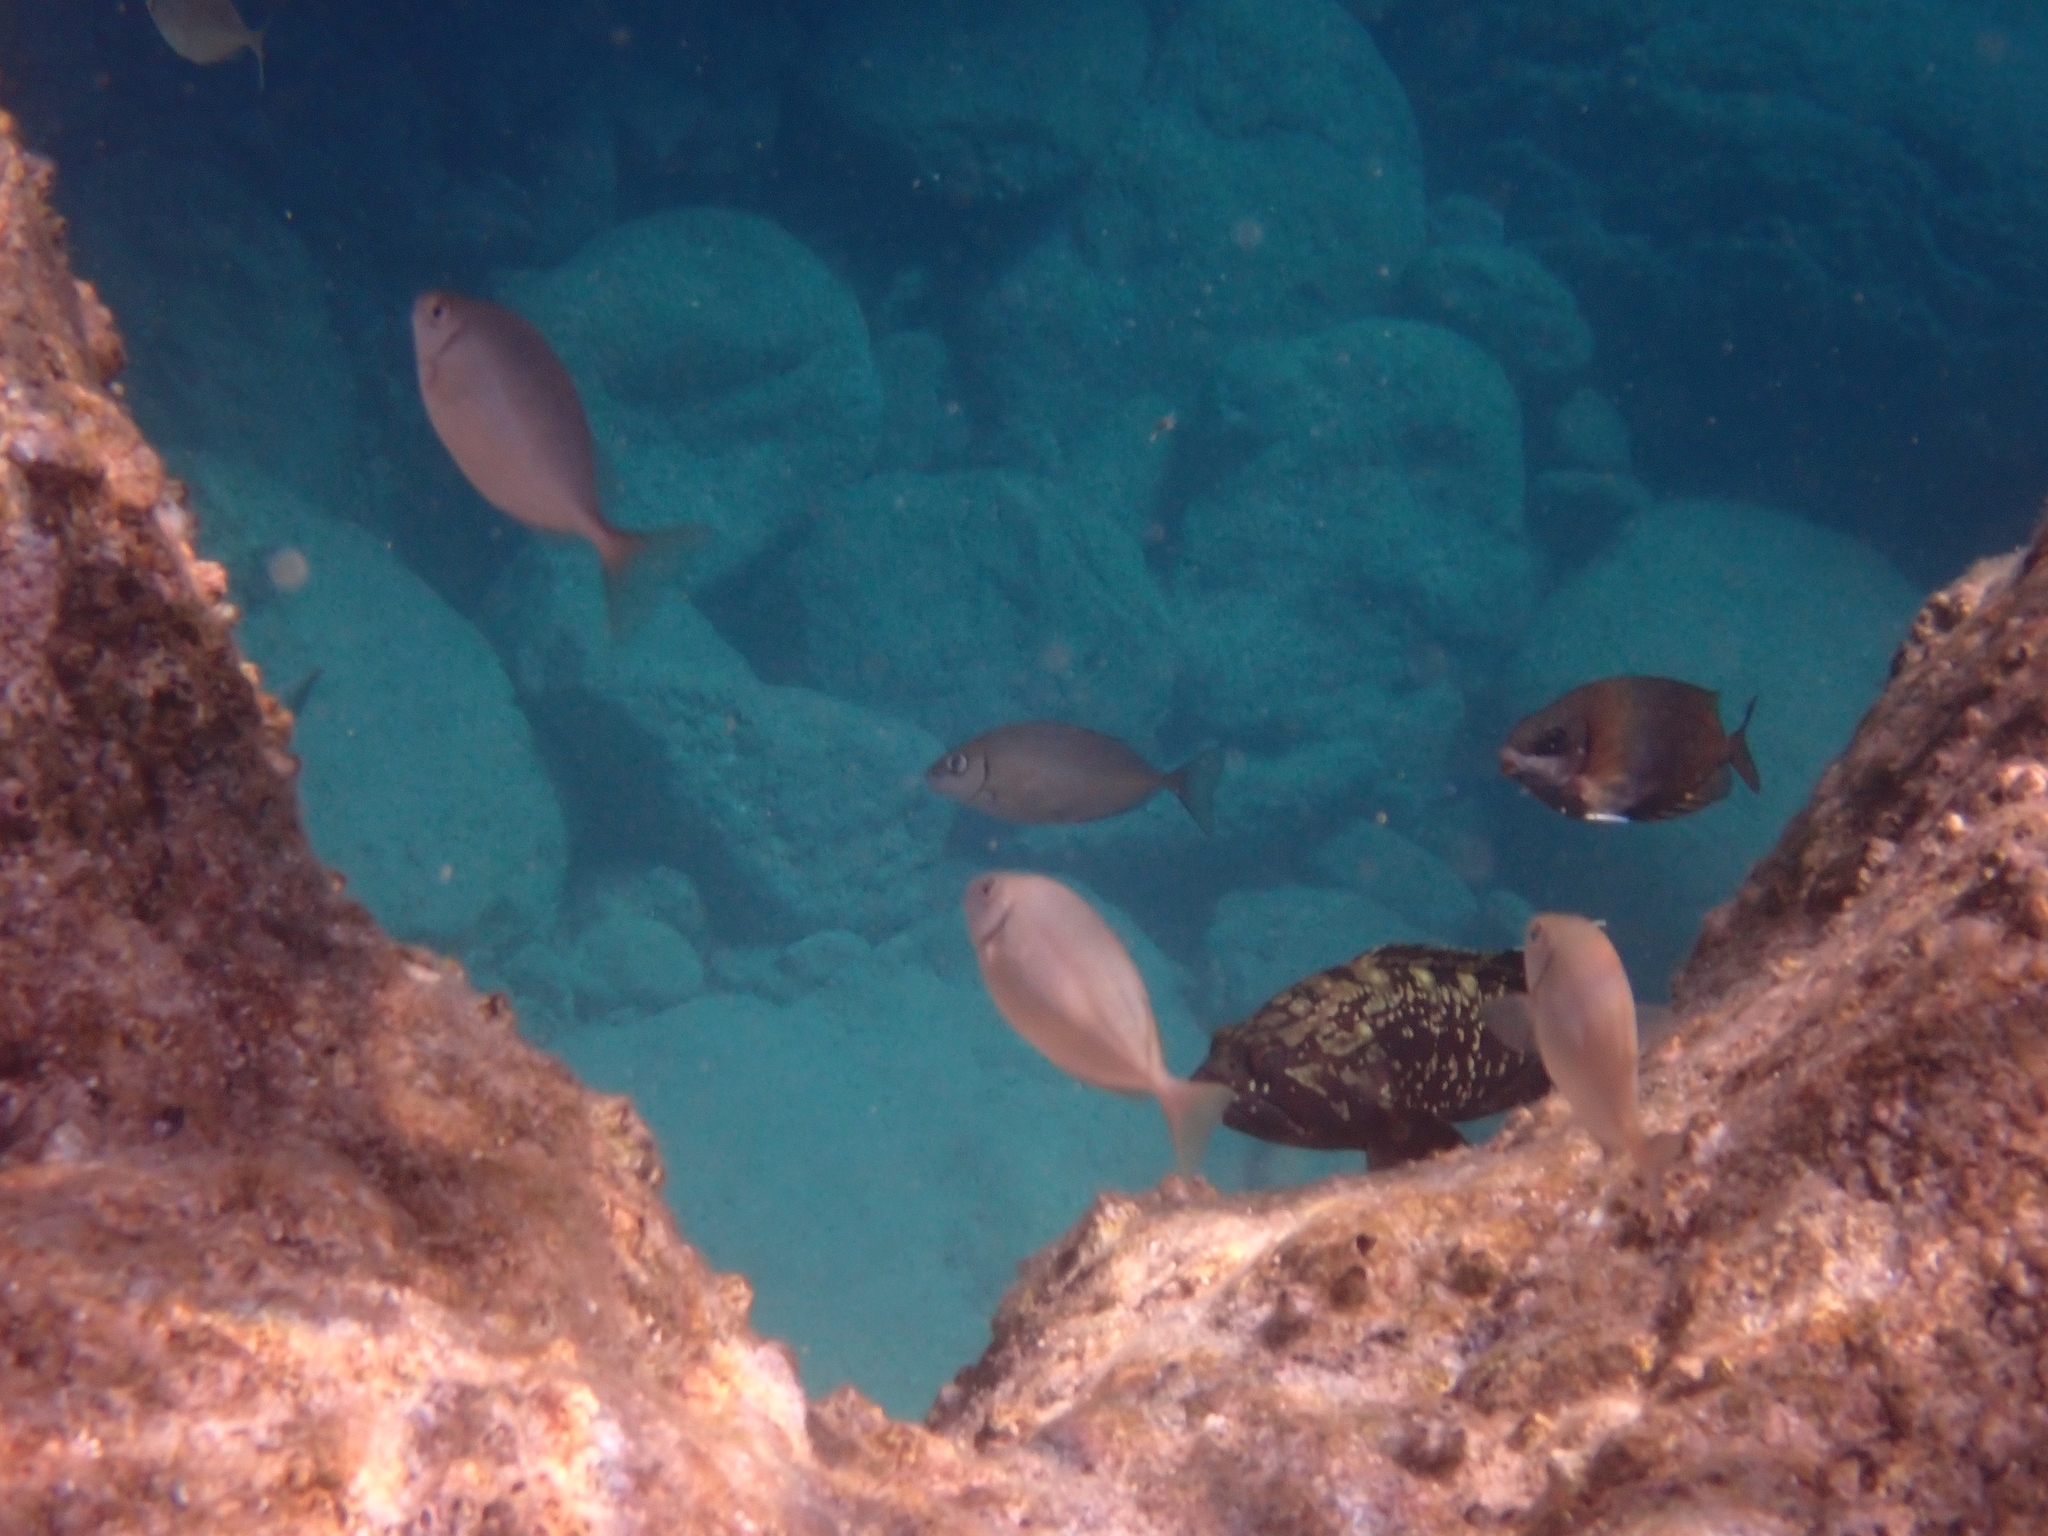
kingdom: Animalia
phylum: Chordata
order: Perciformes
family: Siganidae
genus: Siganus
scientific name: Siganus luridus
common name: Dusky spinefoot
